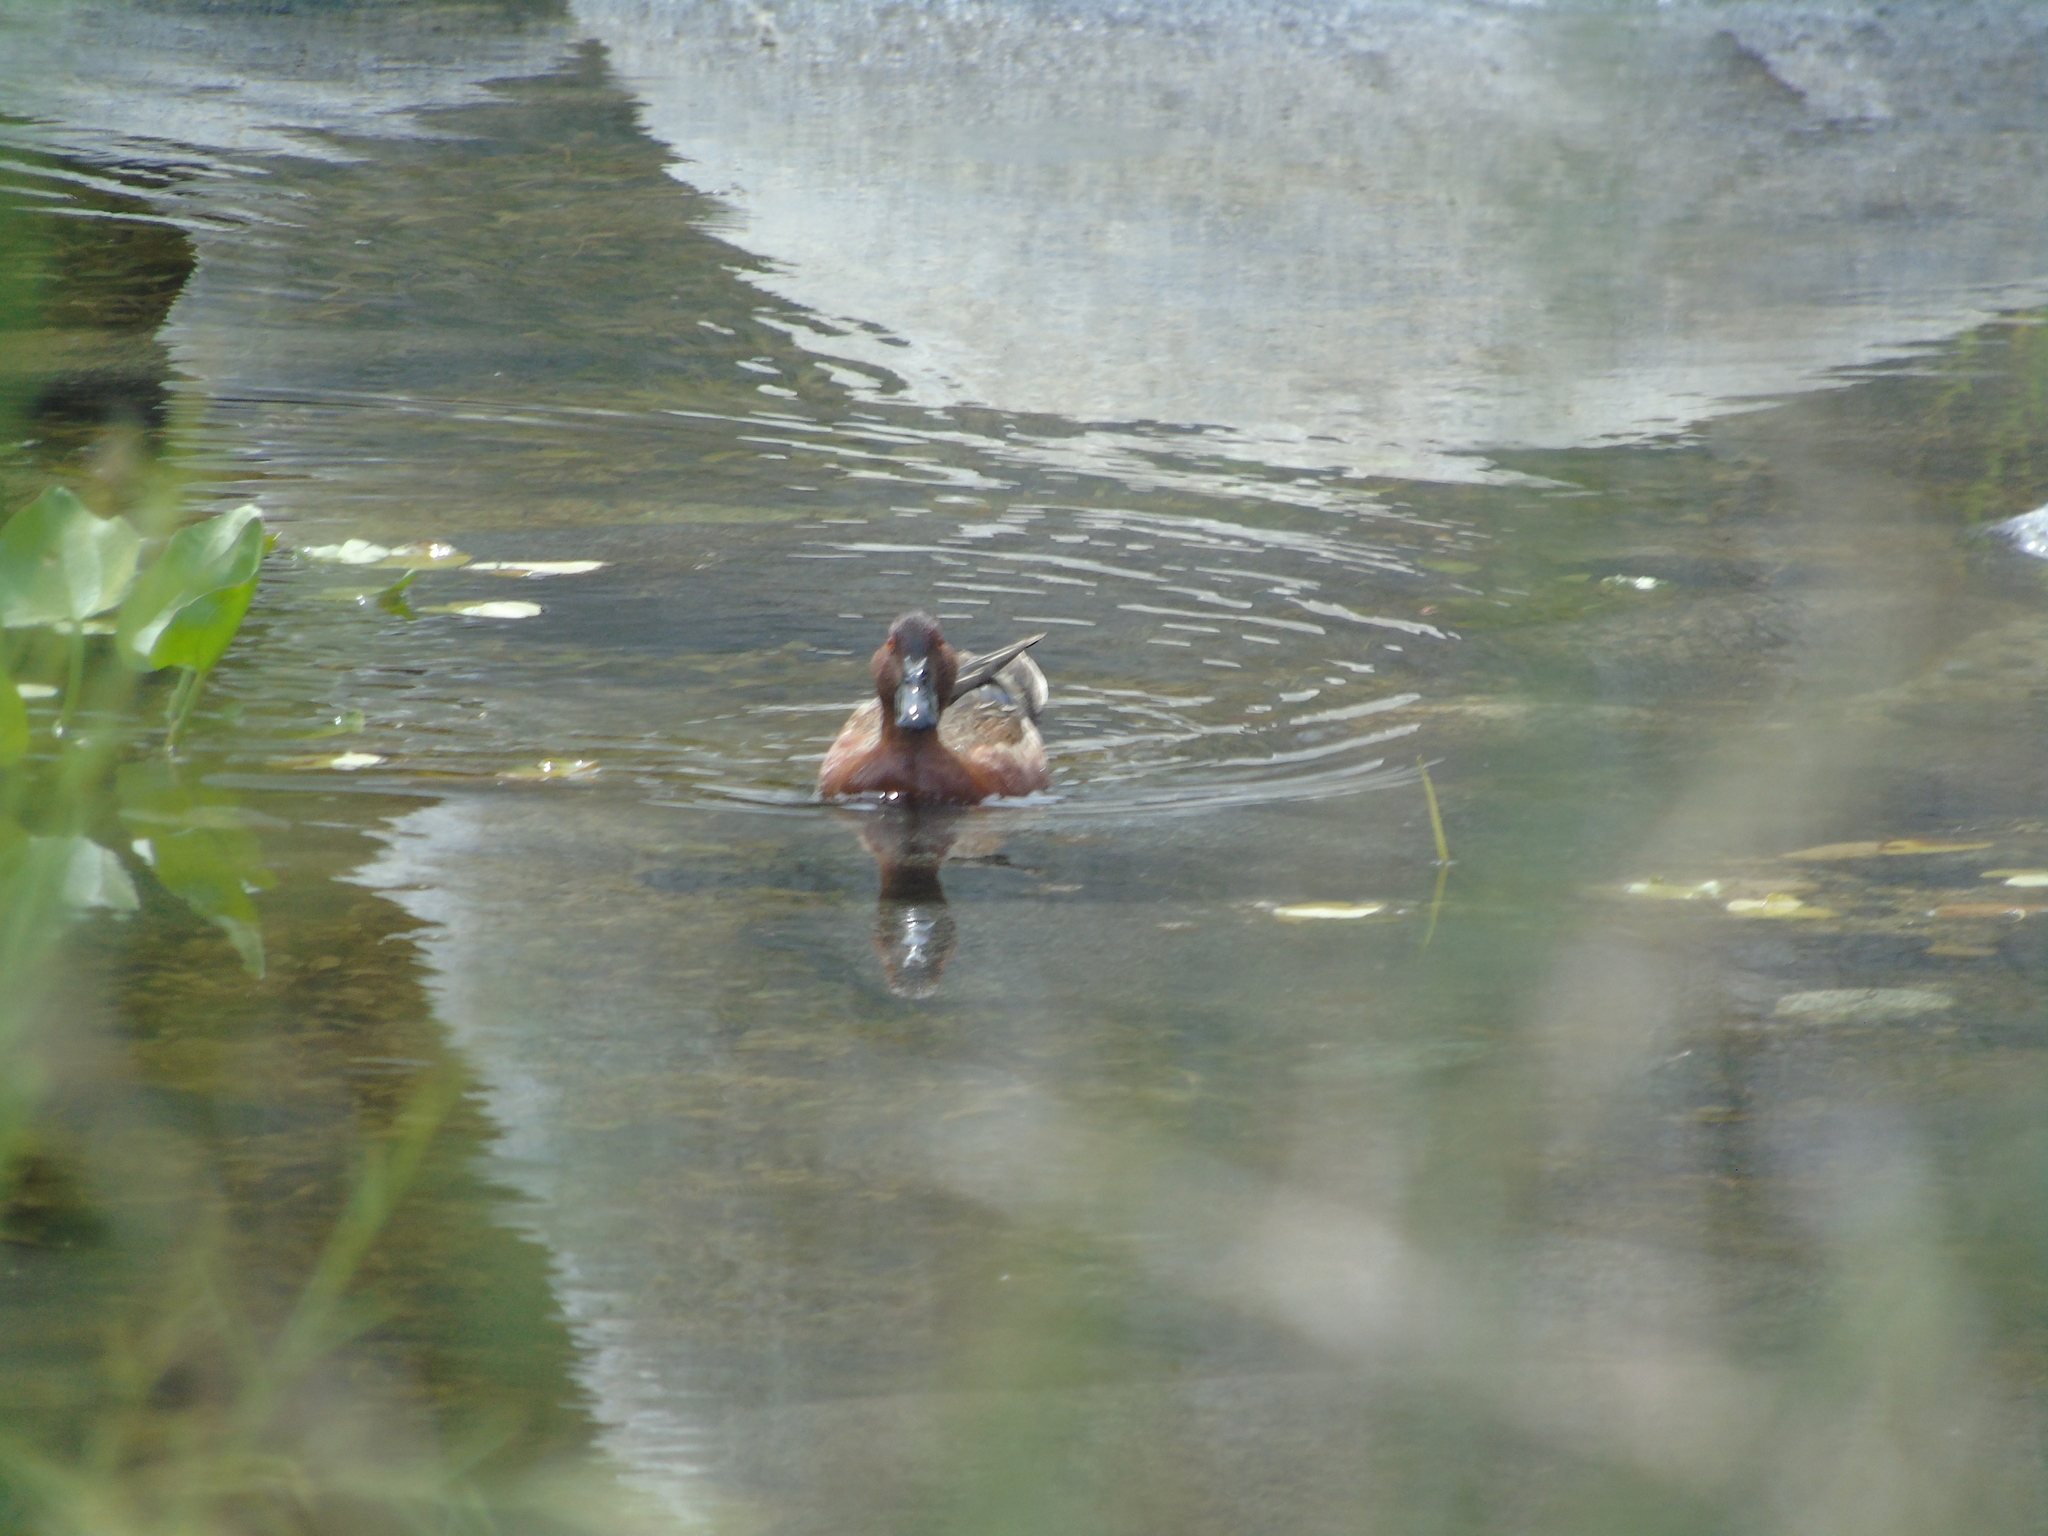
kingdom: Animalia
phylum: Chordata
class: Aves
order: Anseriformes
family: Anatidae
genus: Spatula
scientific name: Spatula cyanoptera
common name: Cinnamon teal
